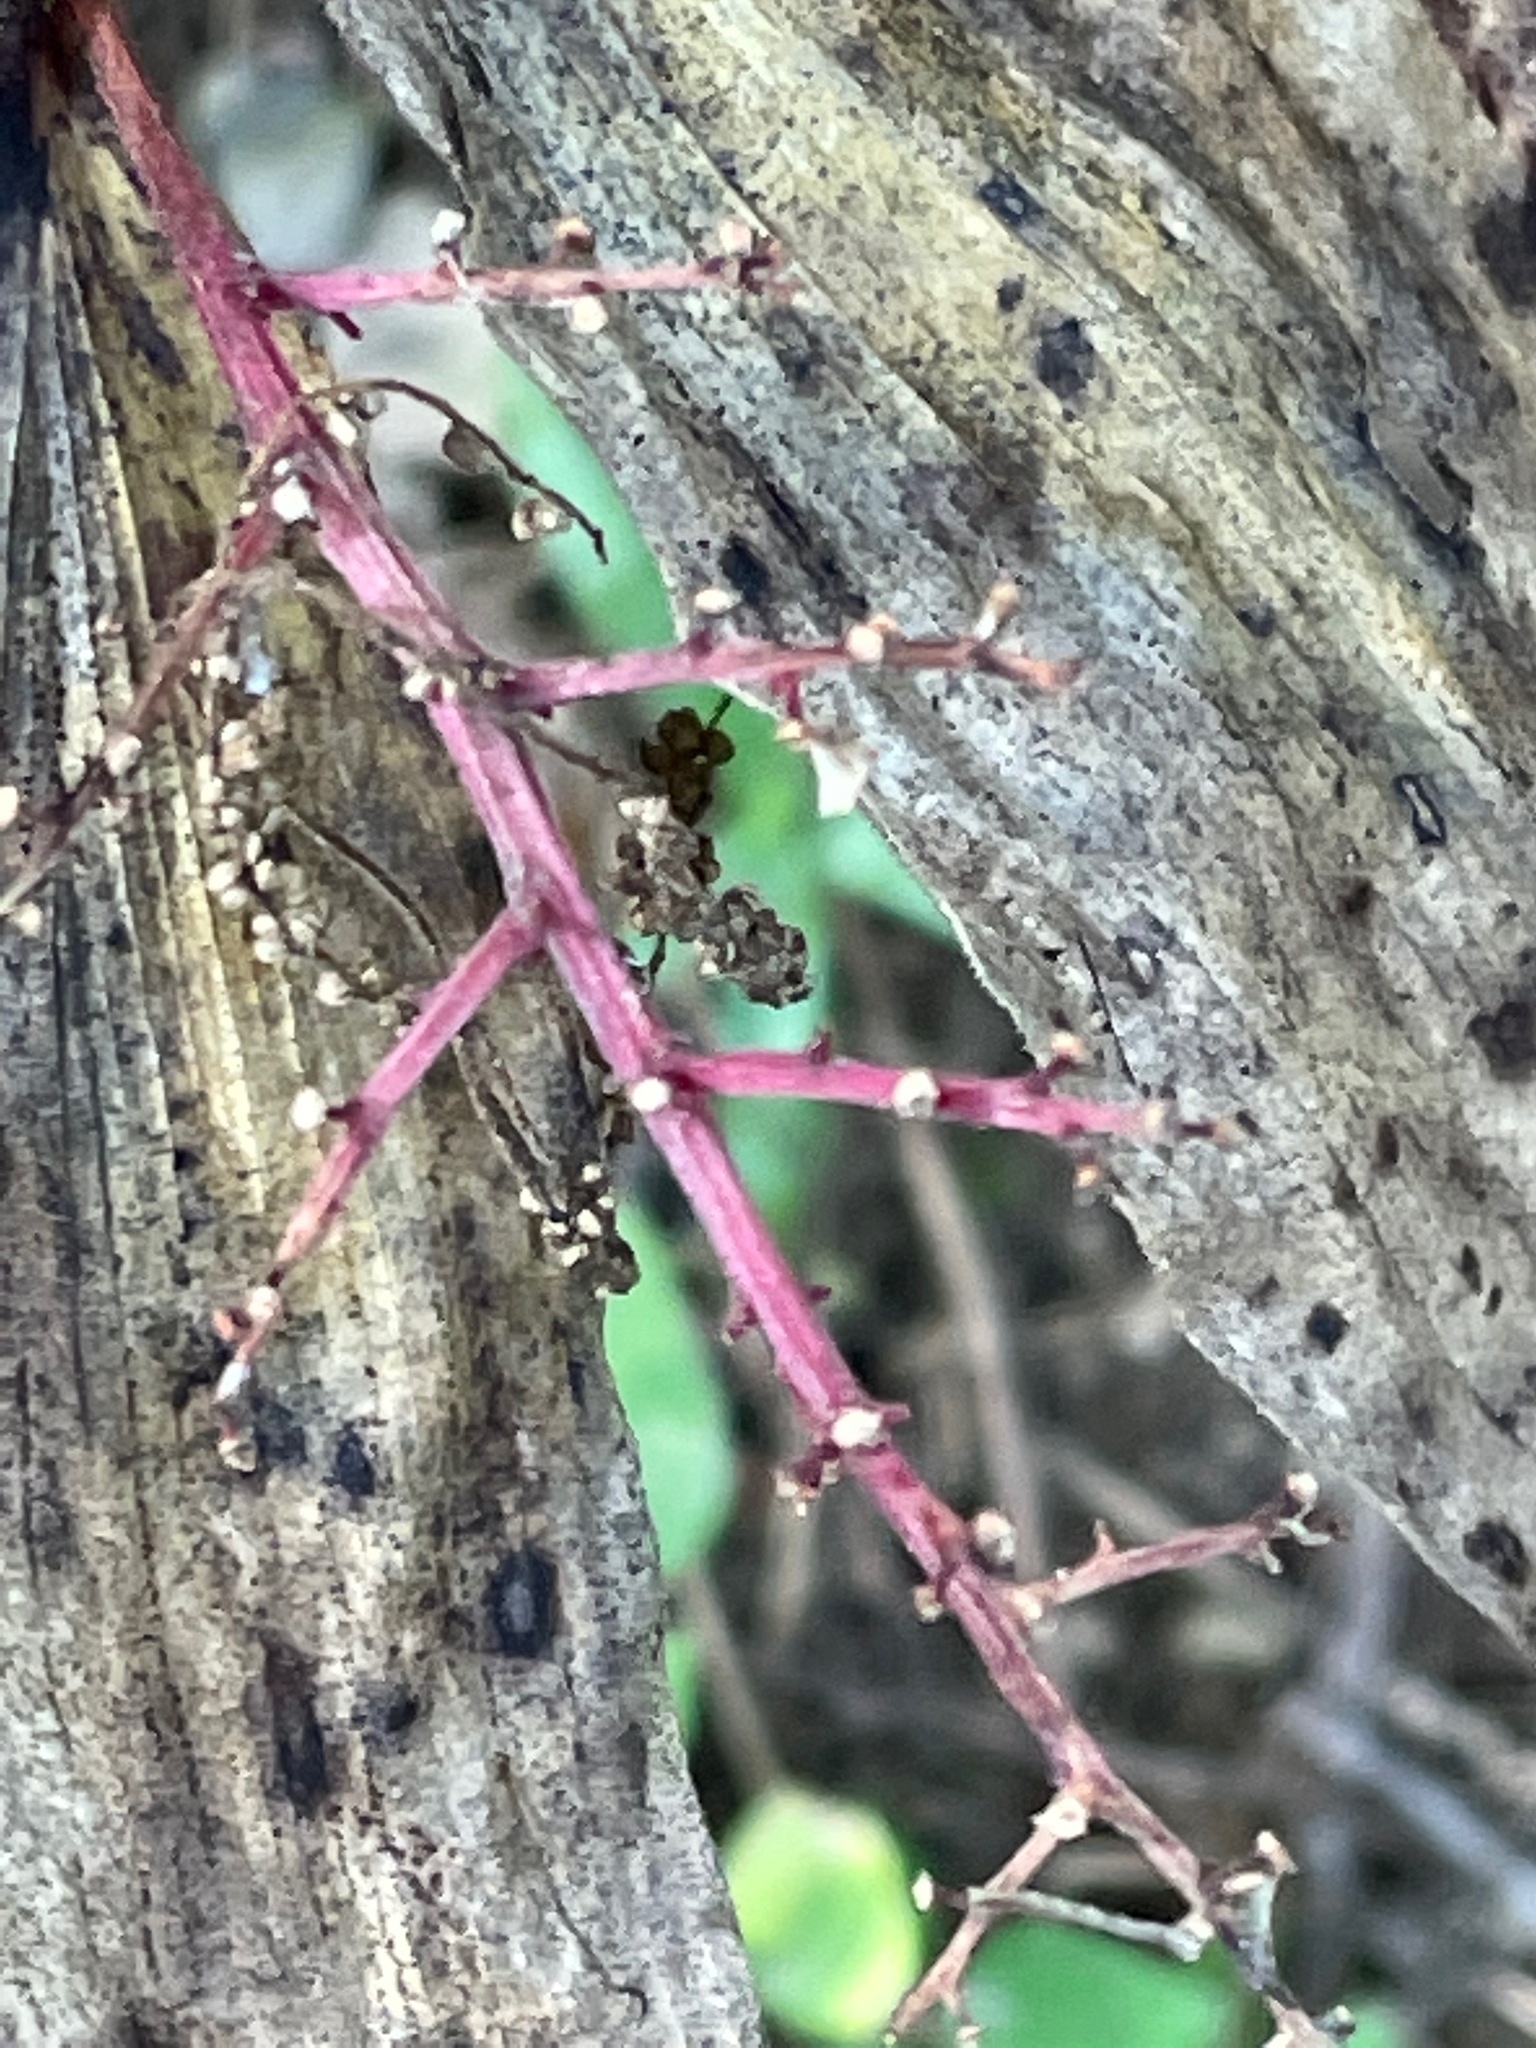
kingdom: Plantae
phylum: Tracheophyta
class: Liliopsida
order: Asparagales
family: Asparagaceae
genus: Maianthemum
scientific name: Maianthemum racemosum
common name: False spikenard
